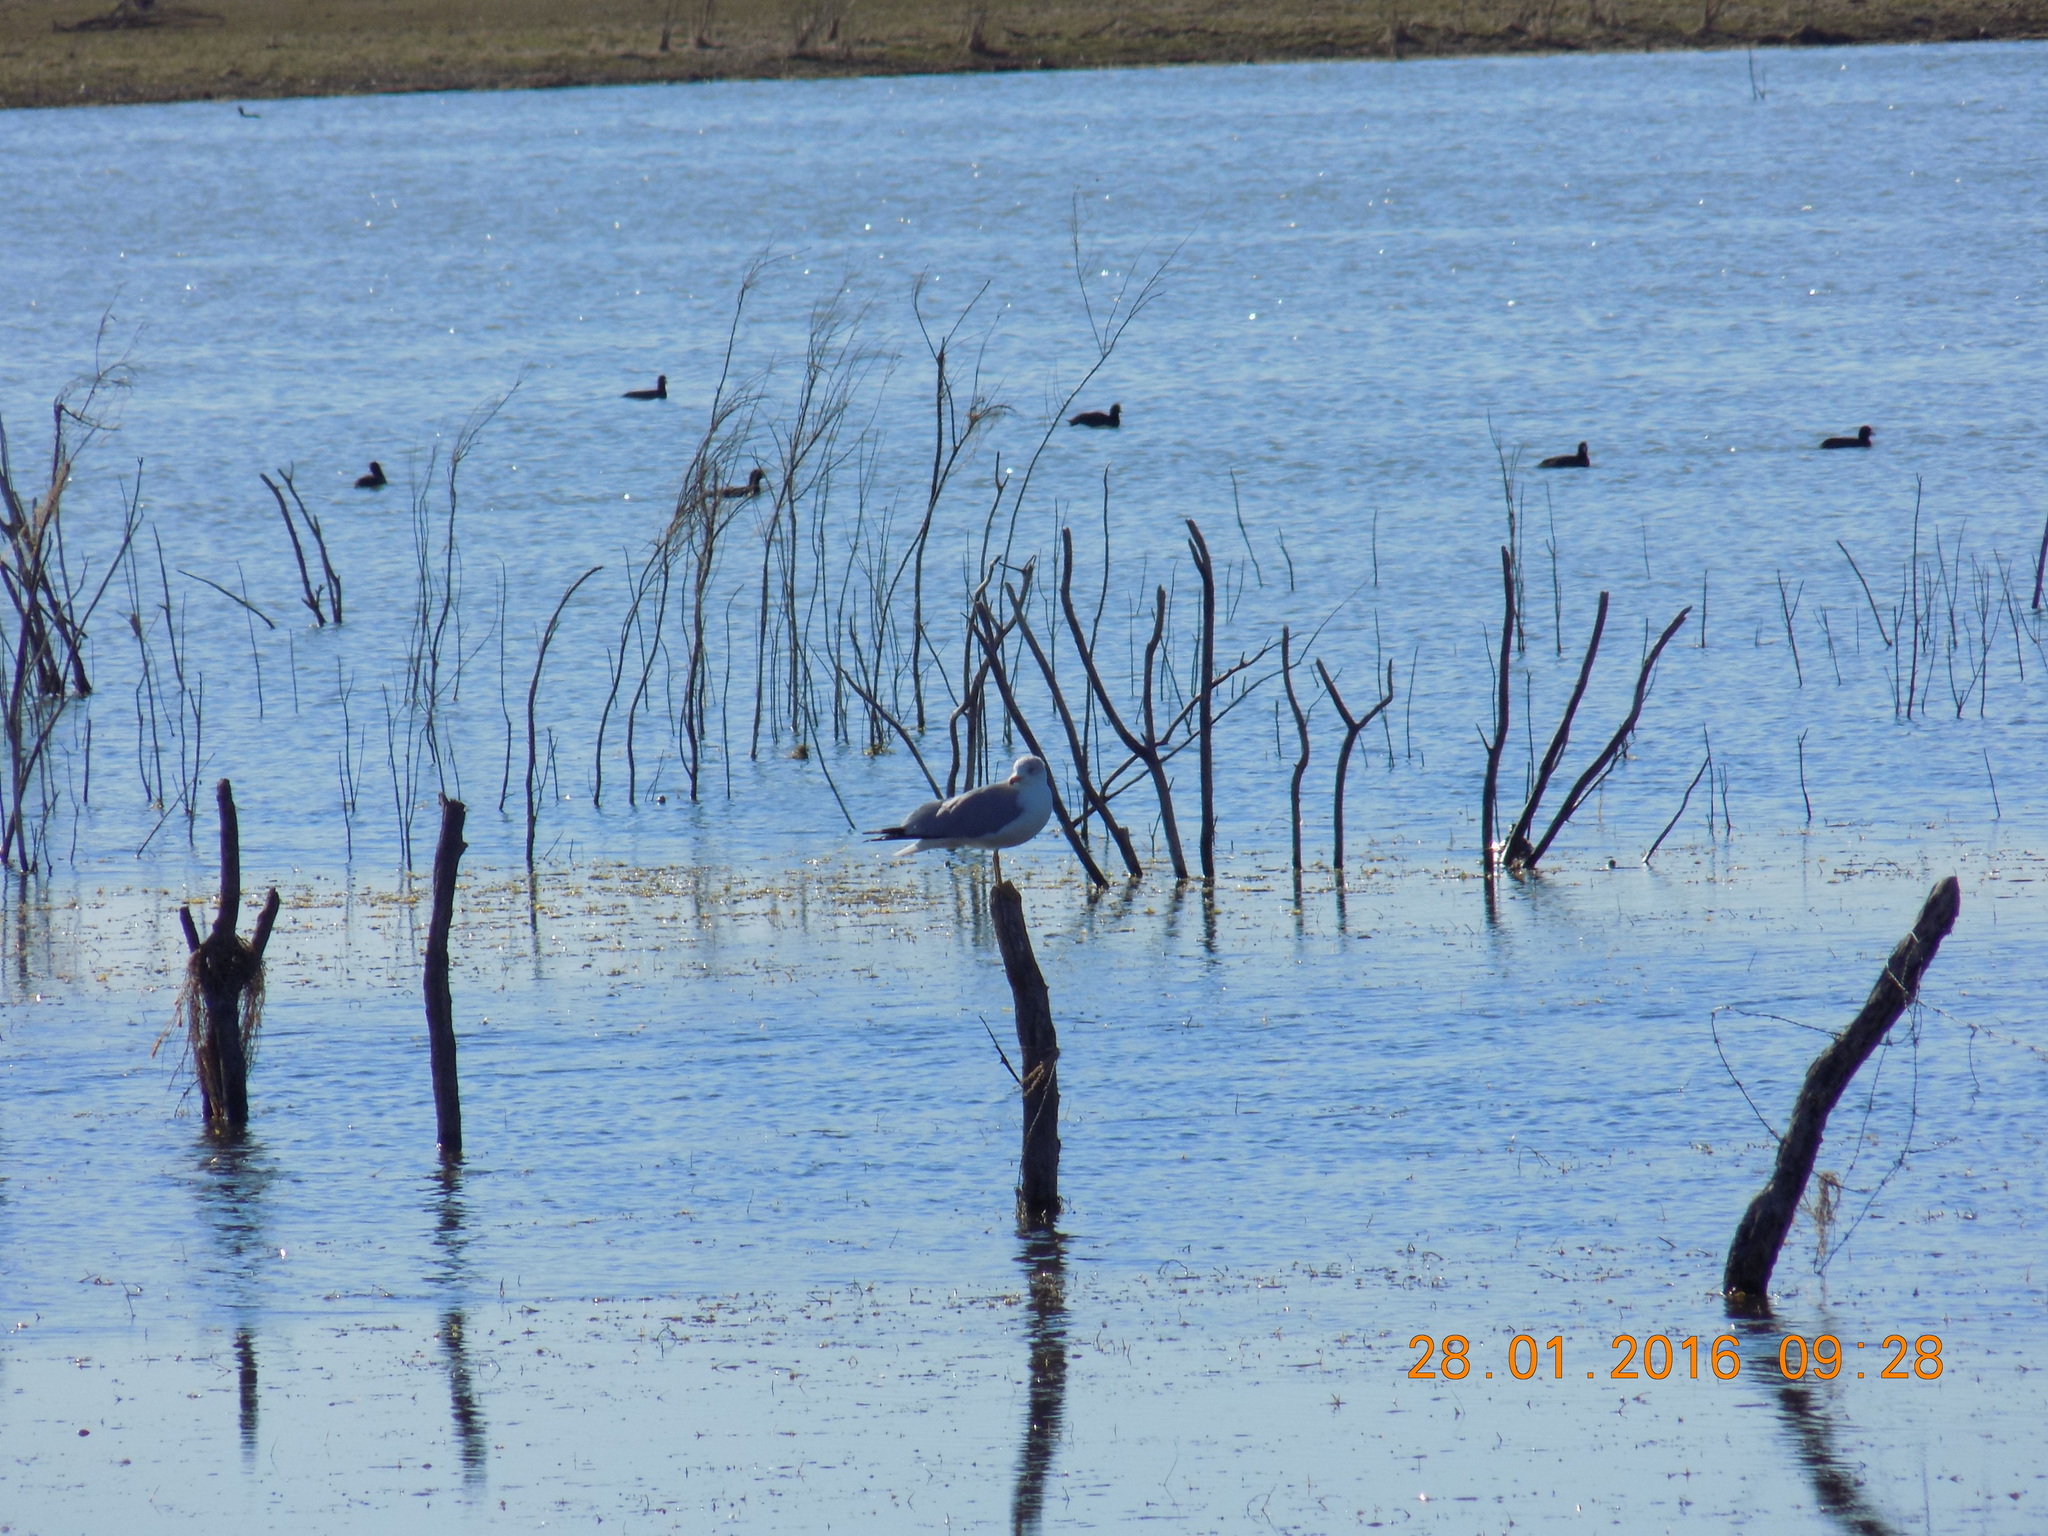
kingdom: Animalia
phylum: Chordata
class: Aves
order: Charadriiformes
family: Laridae
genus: Larus
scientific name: Larus delawarensis
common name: Ring-billed gull
